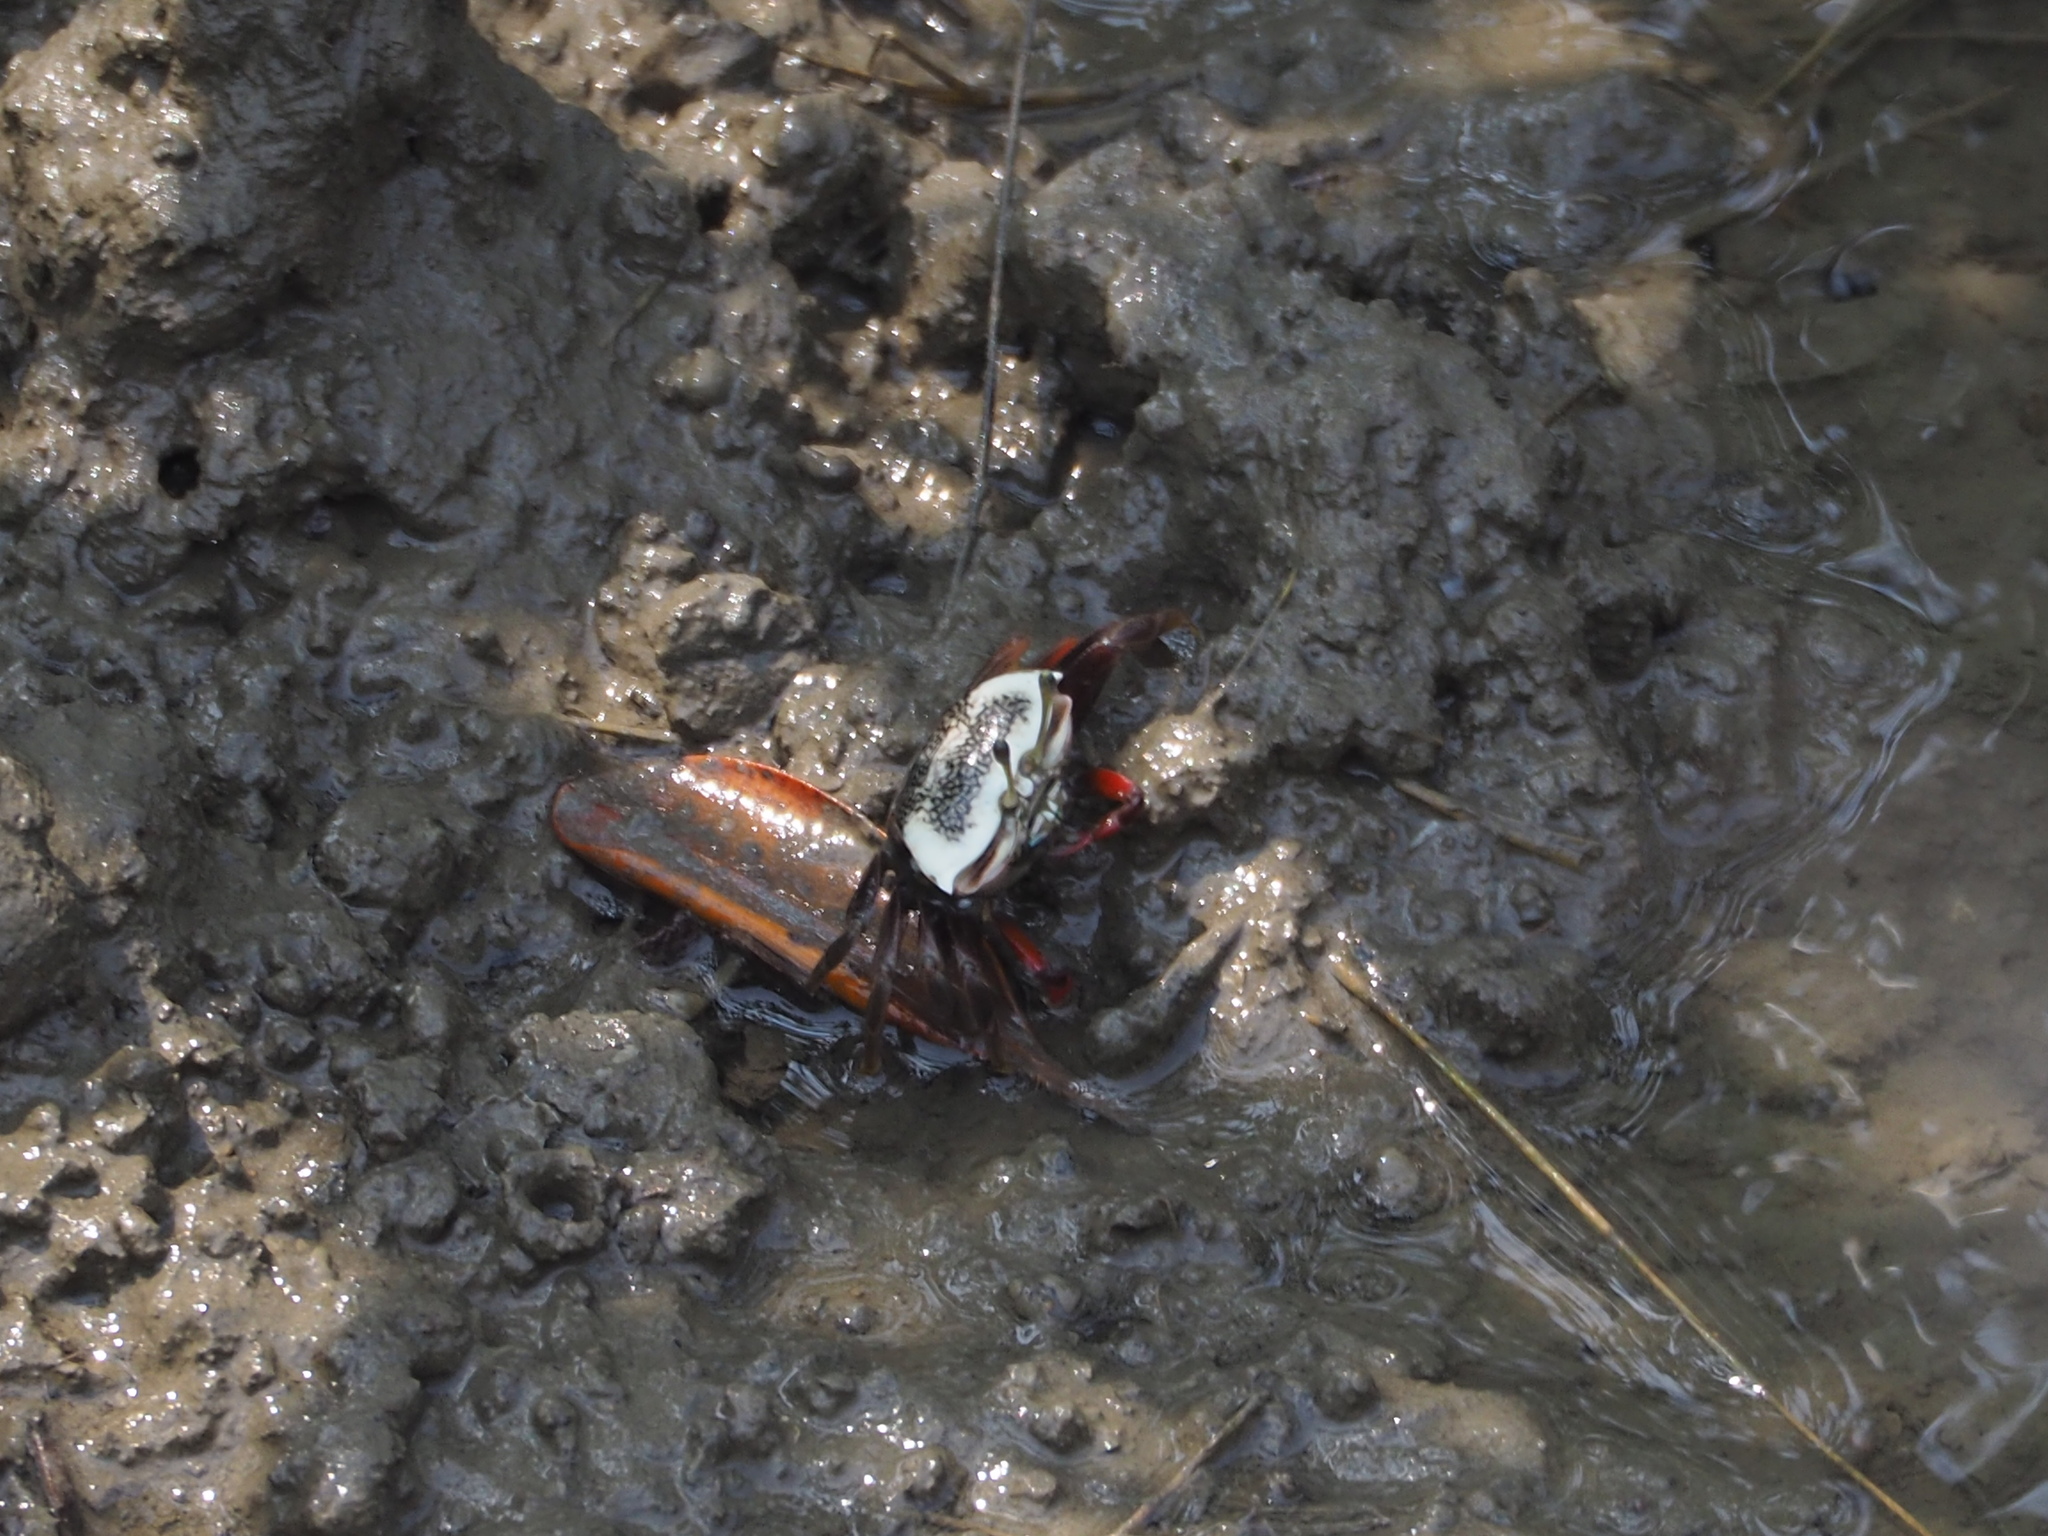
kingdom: Animalia
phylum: Arthropoda
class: Malacostraca
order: Decapoda
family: Ocypodidae
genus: Tubuca
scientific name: Tubuca arcuata
